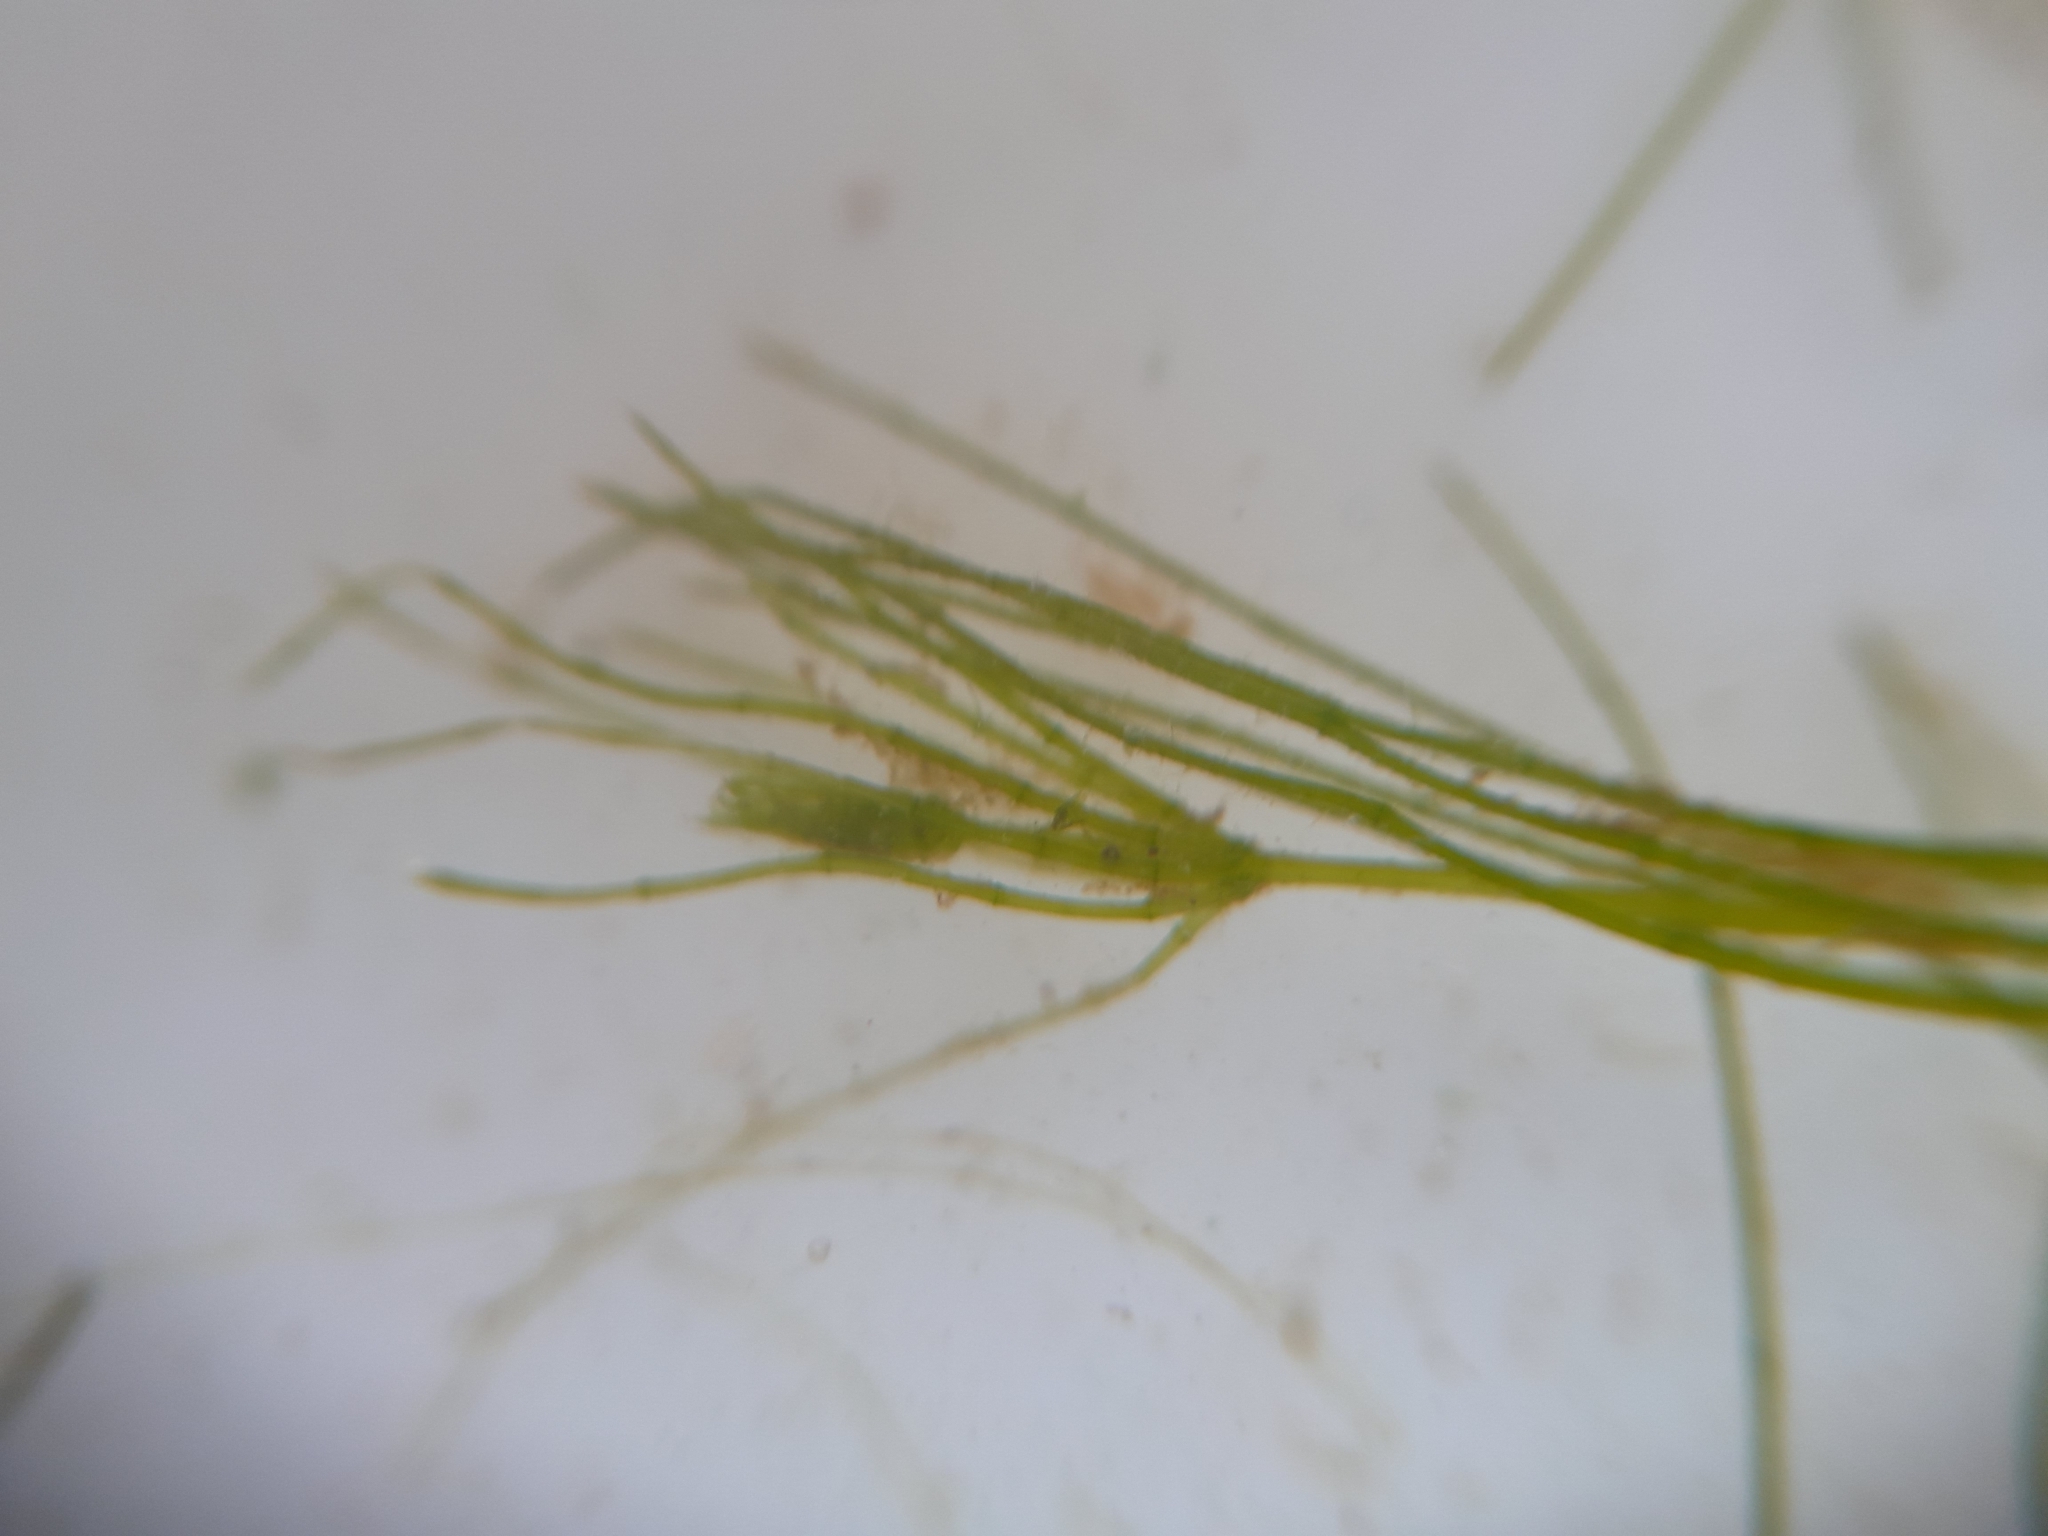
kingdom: Plantae
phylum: Charophyta
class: Charophyceae
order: Charales
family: Characeae
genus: Chara
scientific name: Chara globularis
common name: Fragile stonewort
